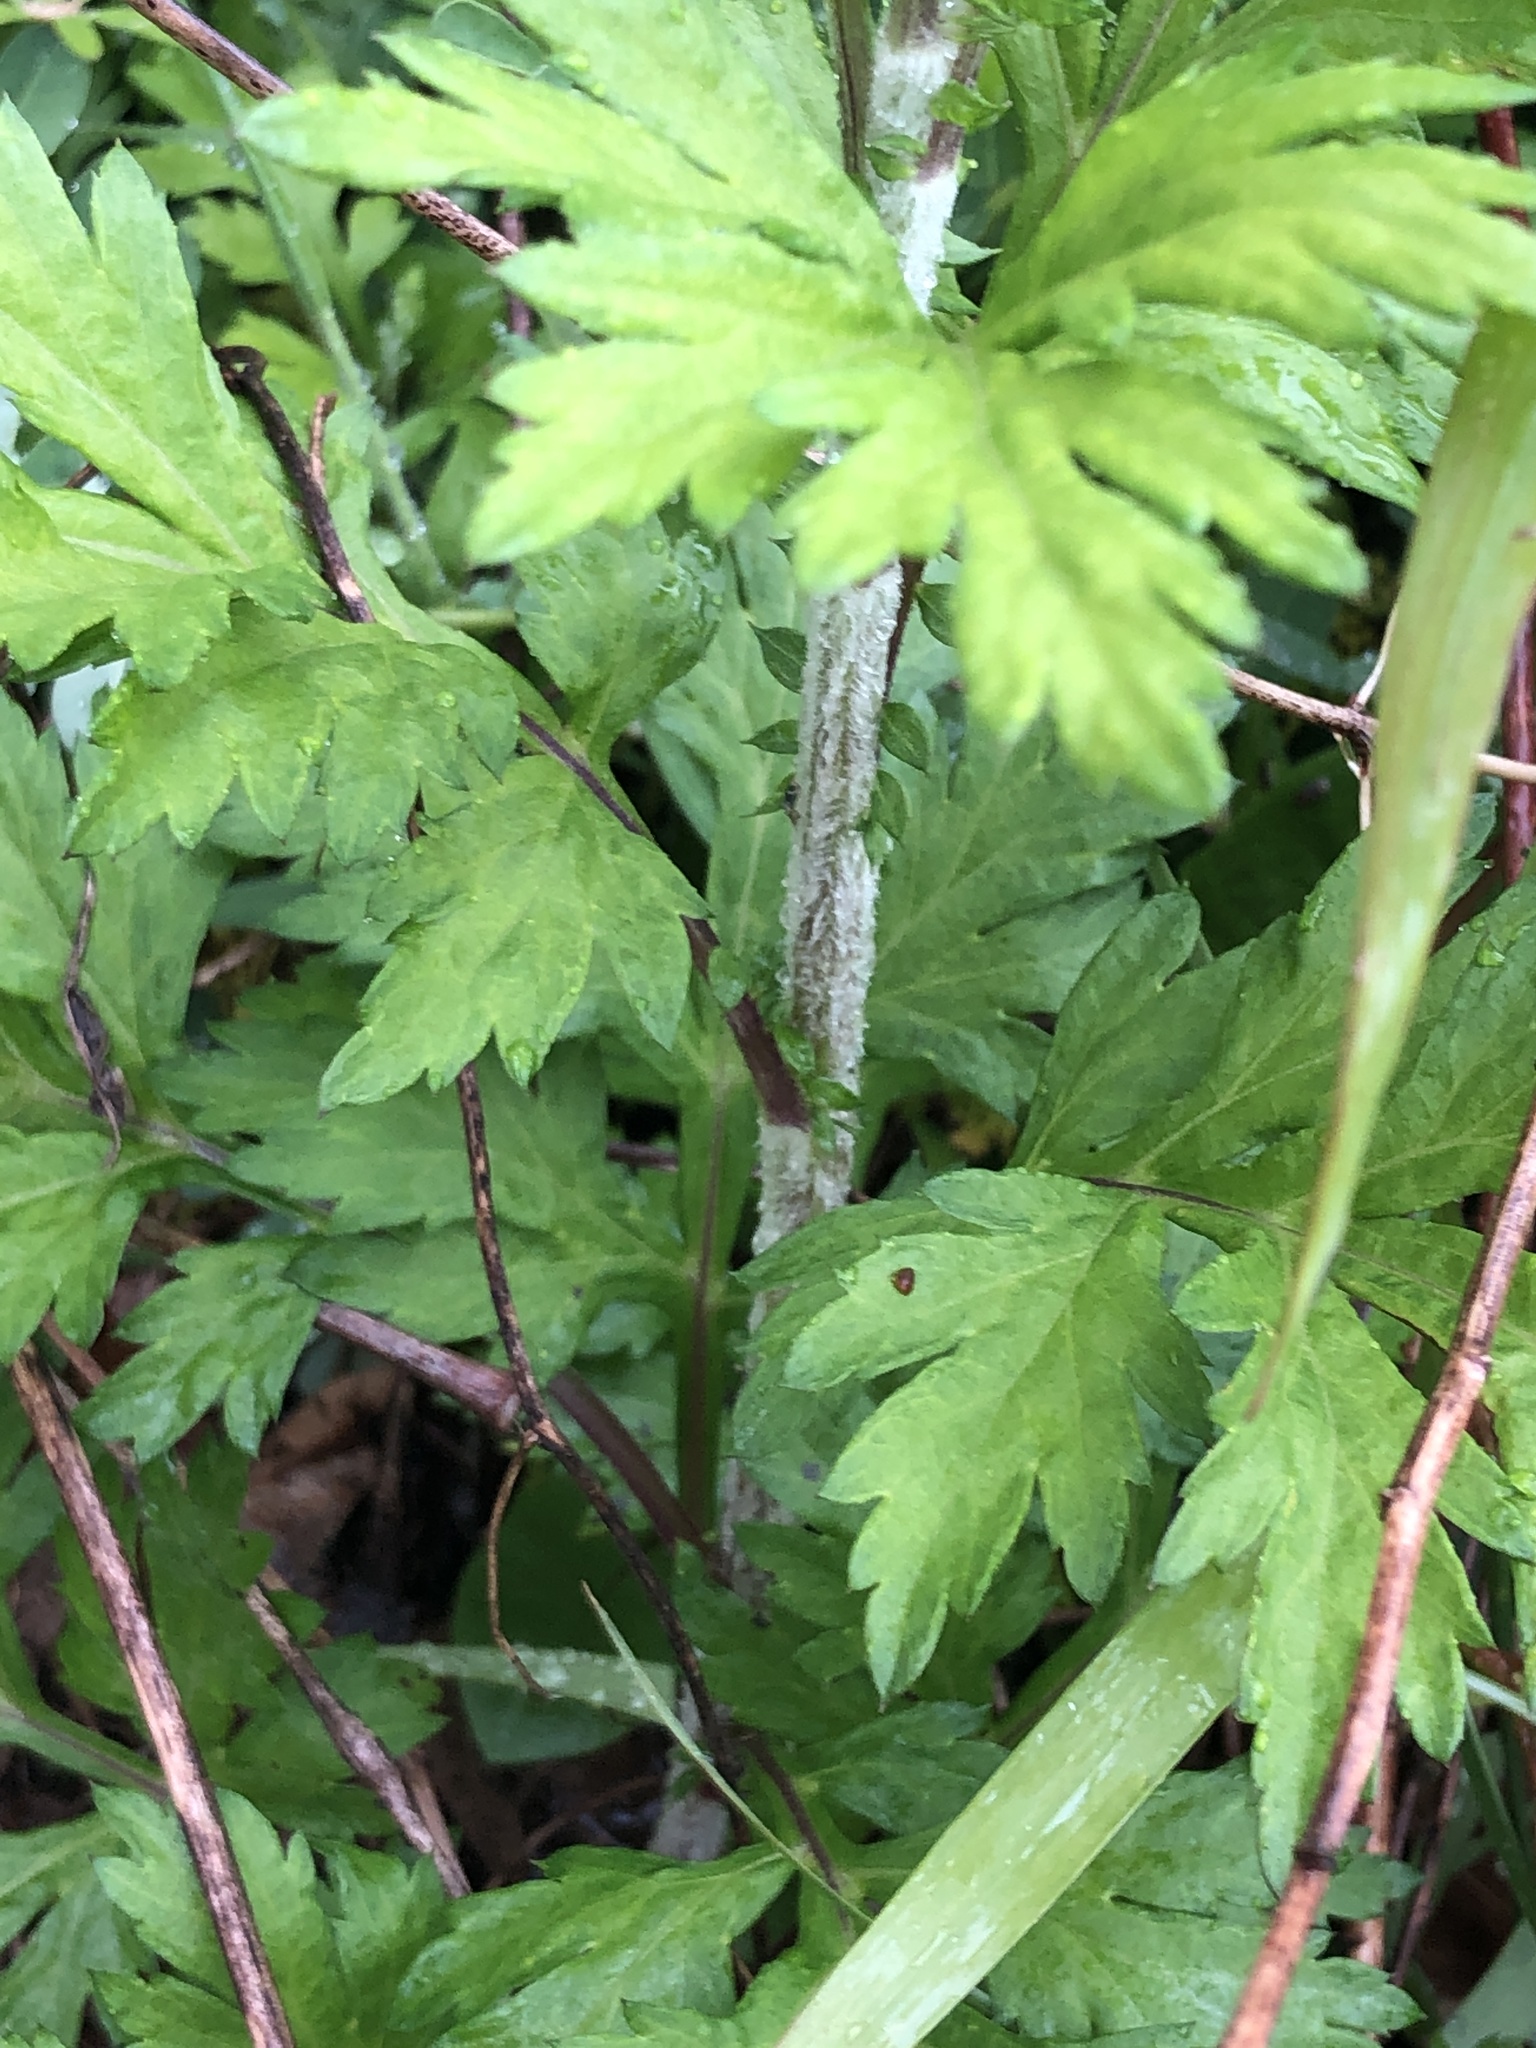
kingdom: Plantae
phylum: Tracheophyta
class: Magnoliopsida
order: Asterales
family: Asteraceae
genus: Artemisia
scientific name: Artemisia vulgaris
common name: Mugwort
